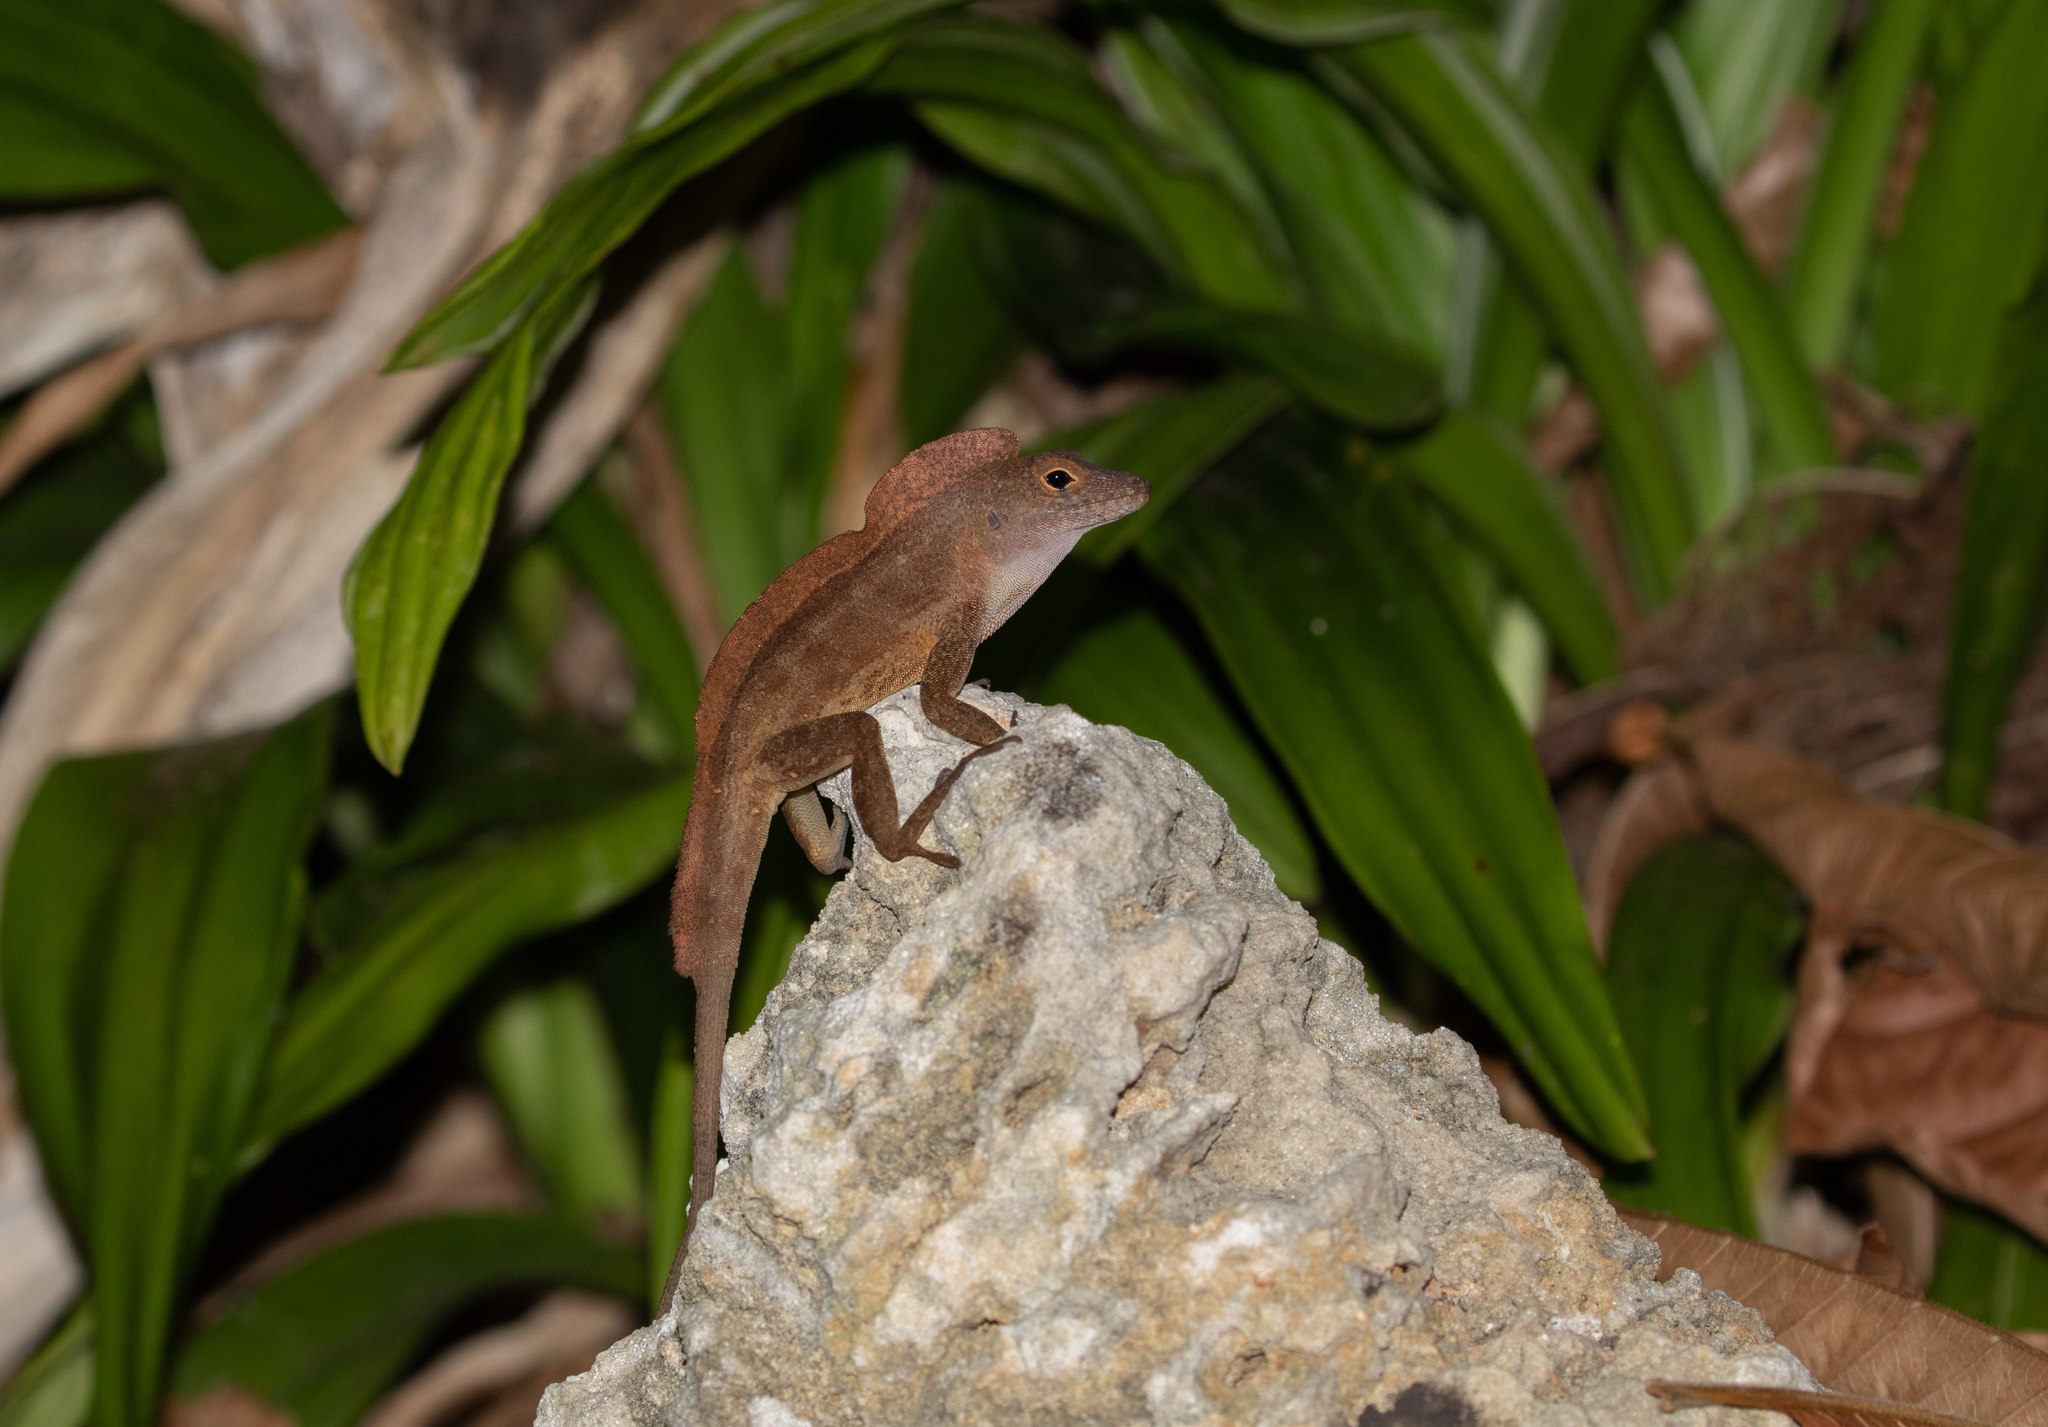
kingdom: Animalia
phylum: Chordata
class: Squamata
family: Dactyloidae
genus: Anolis
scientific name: Anolis cristatellus
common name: Crested anole
